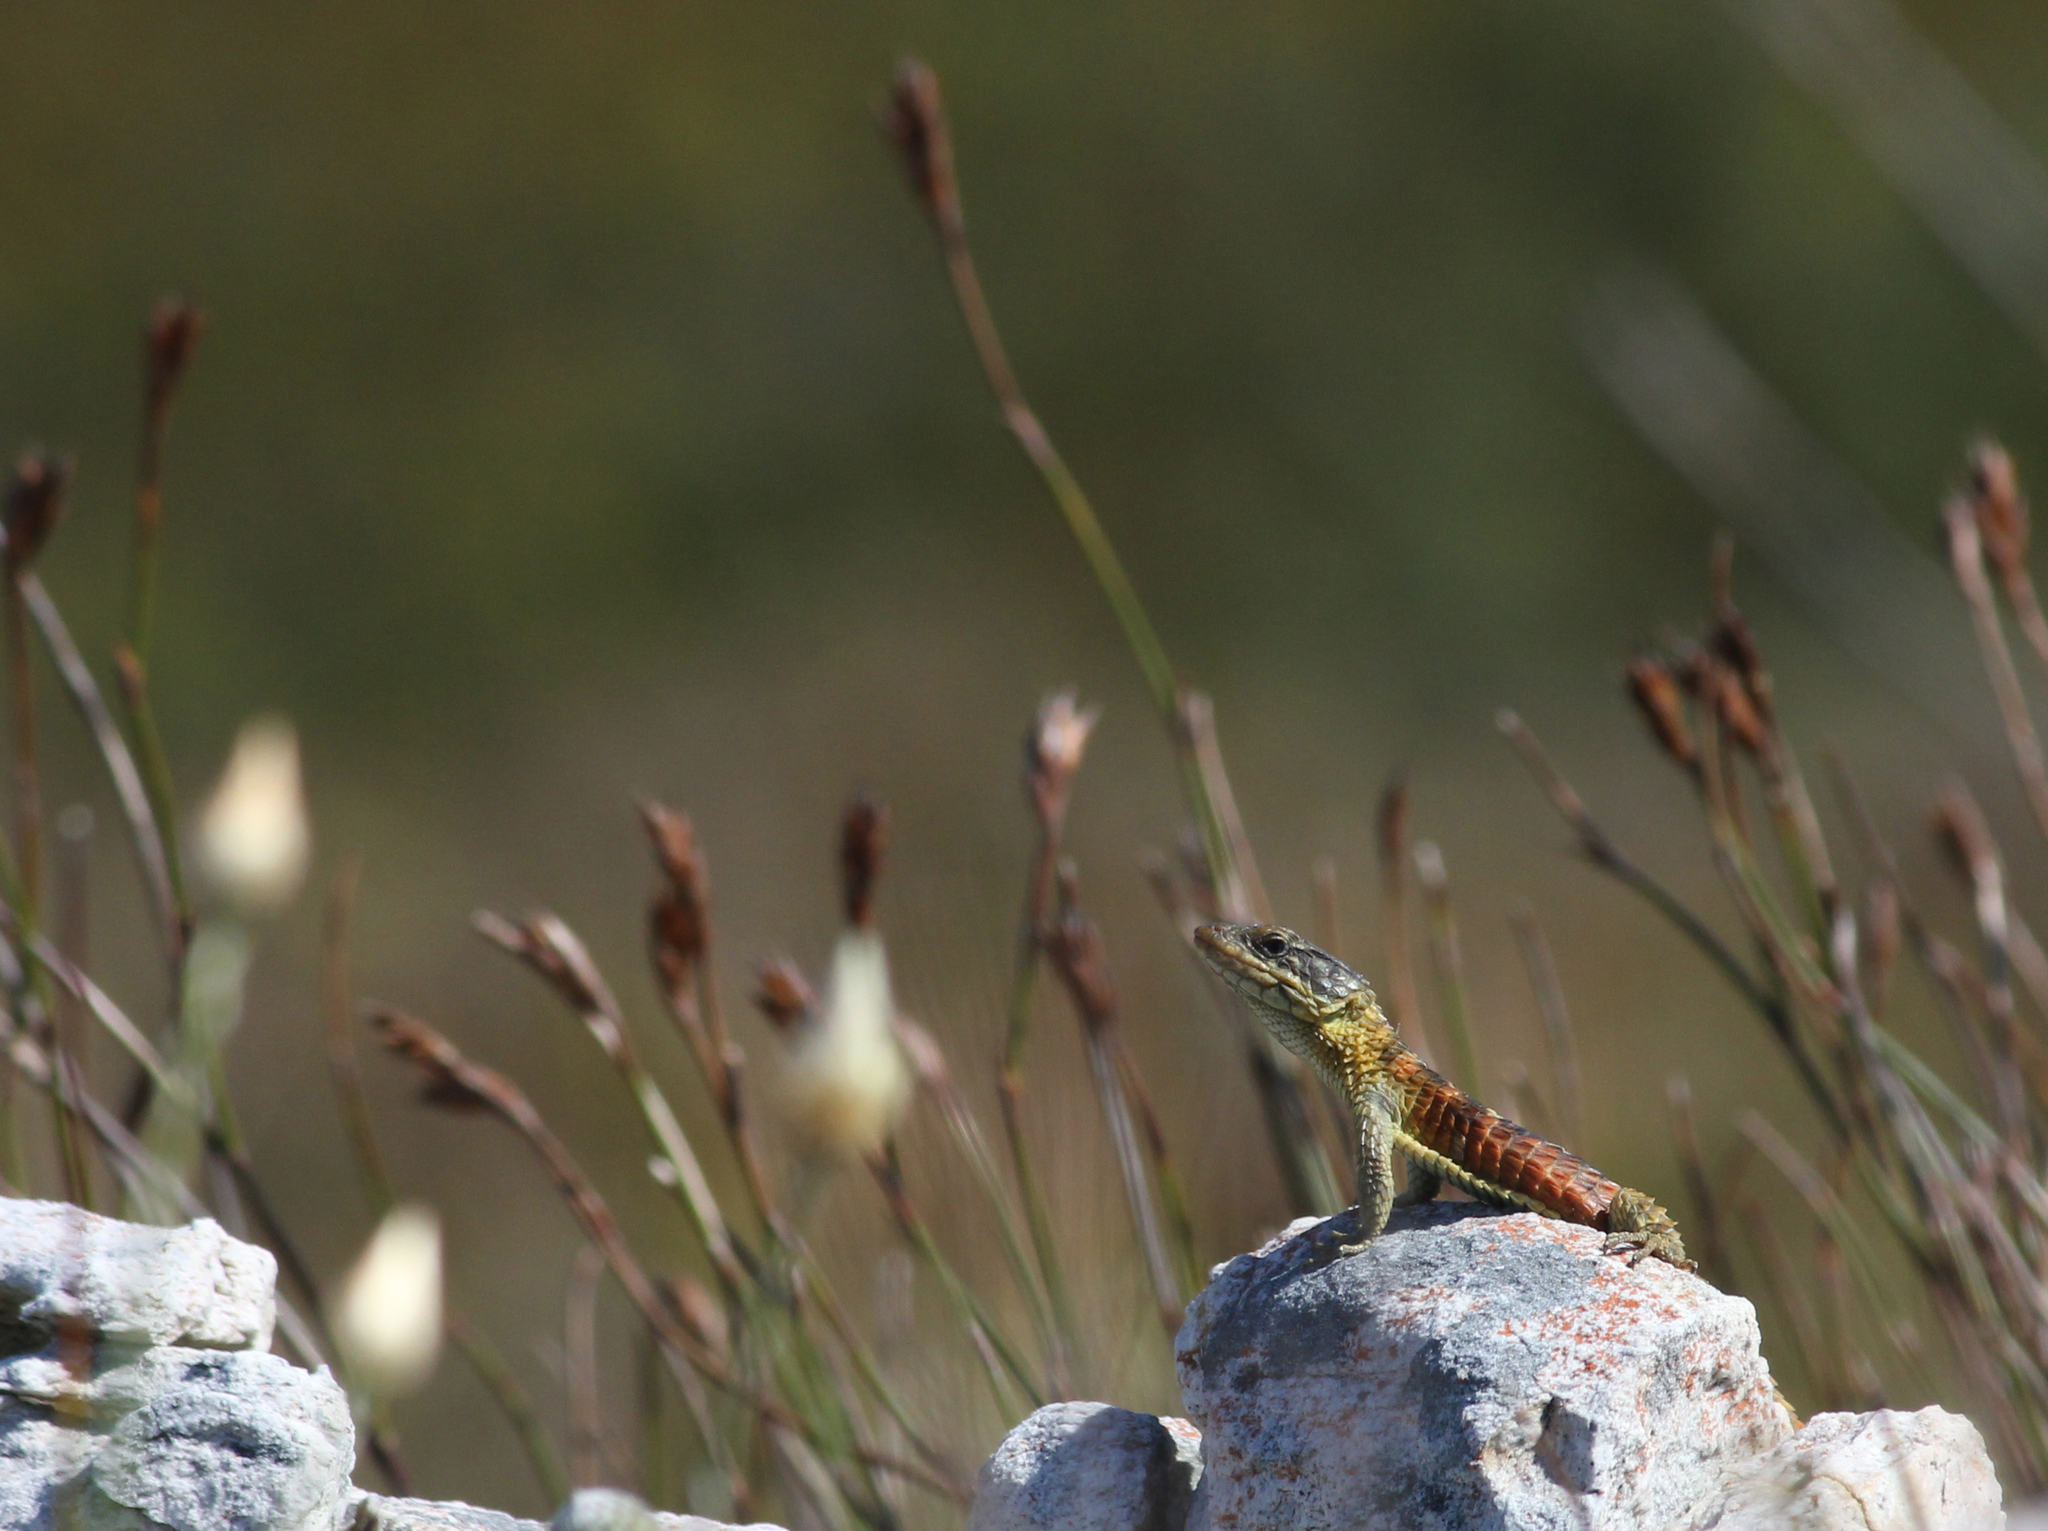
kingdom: Animalia
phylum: Chordata
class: Squamata
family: Cordylidae
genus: Cordylus
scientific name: Cordylus cordylus
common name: Cape girdled lizard
